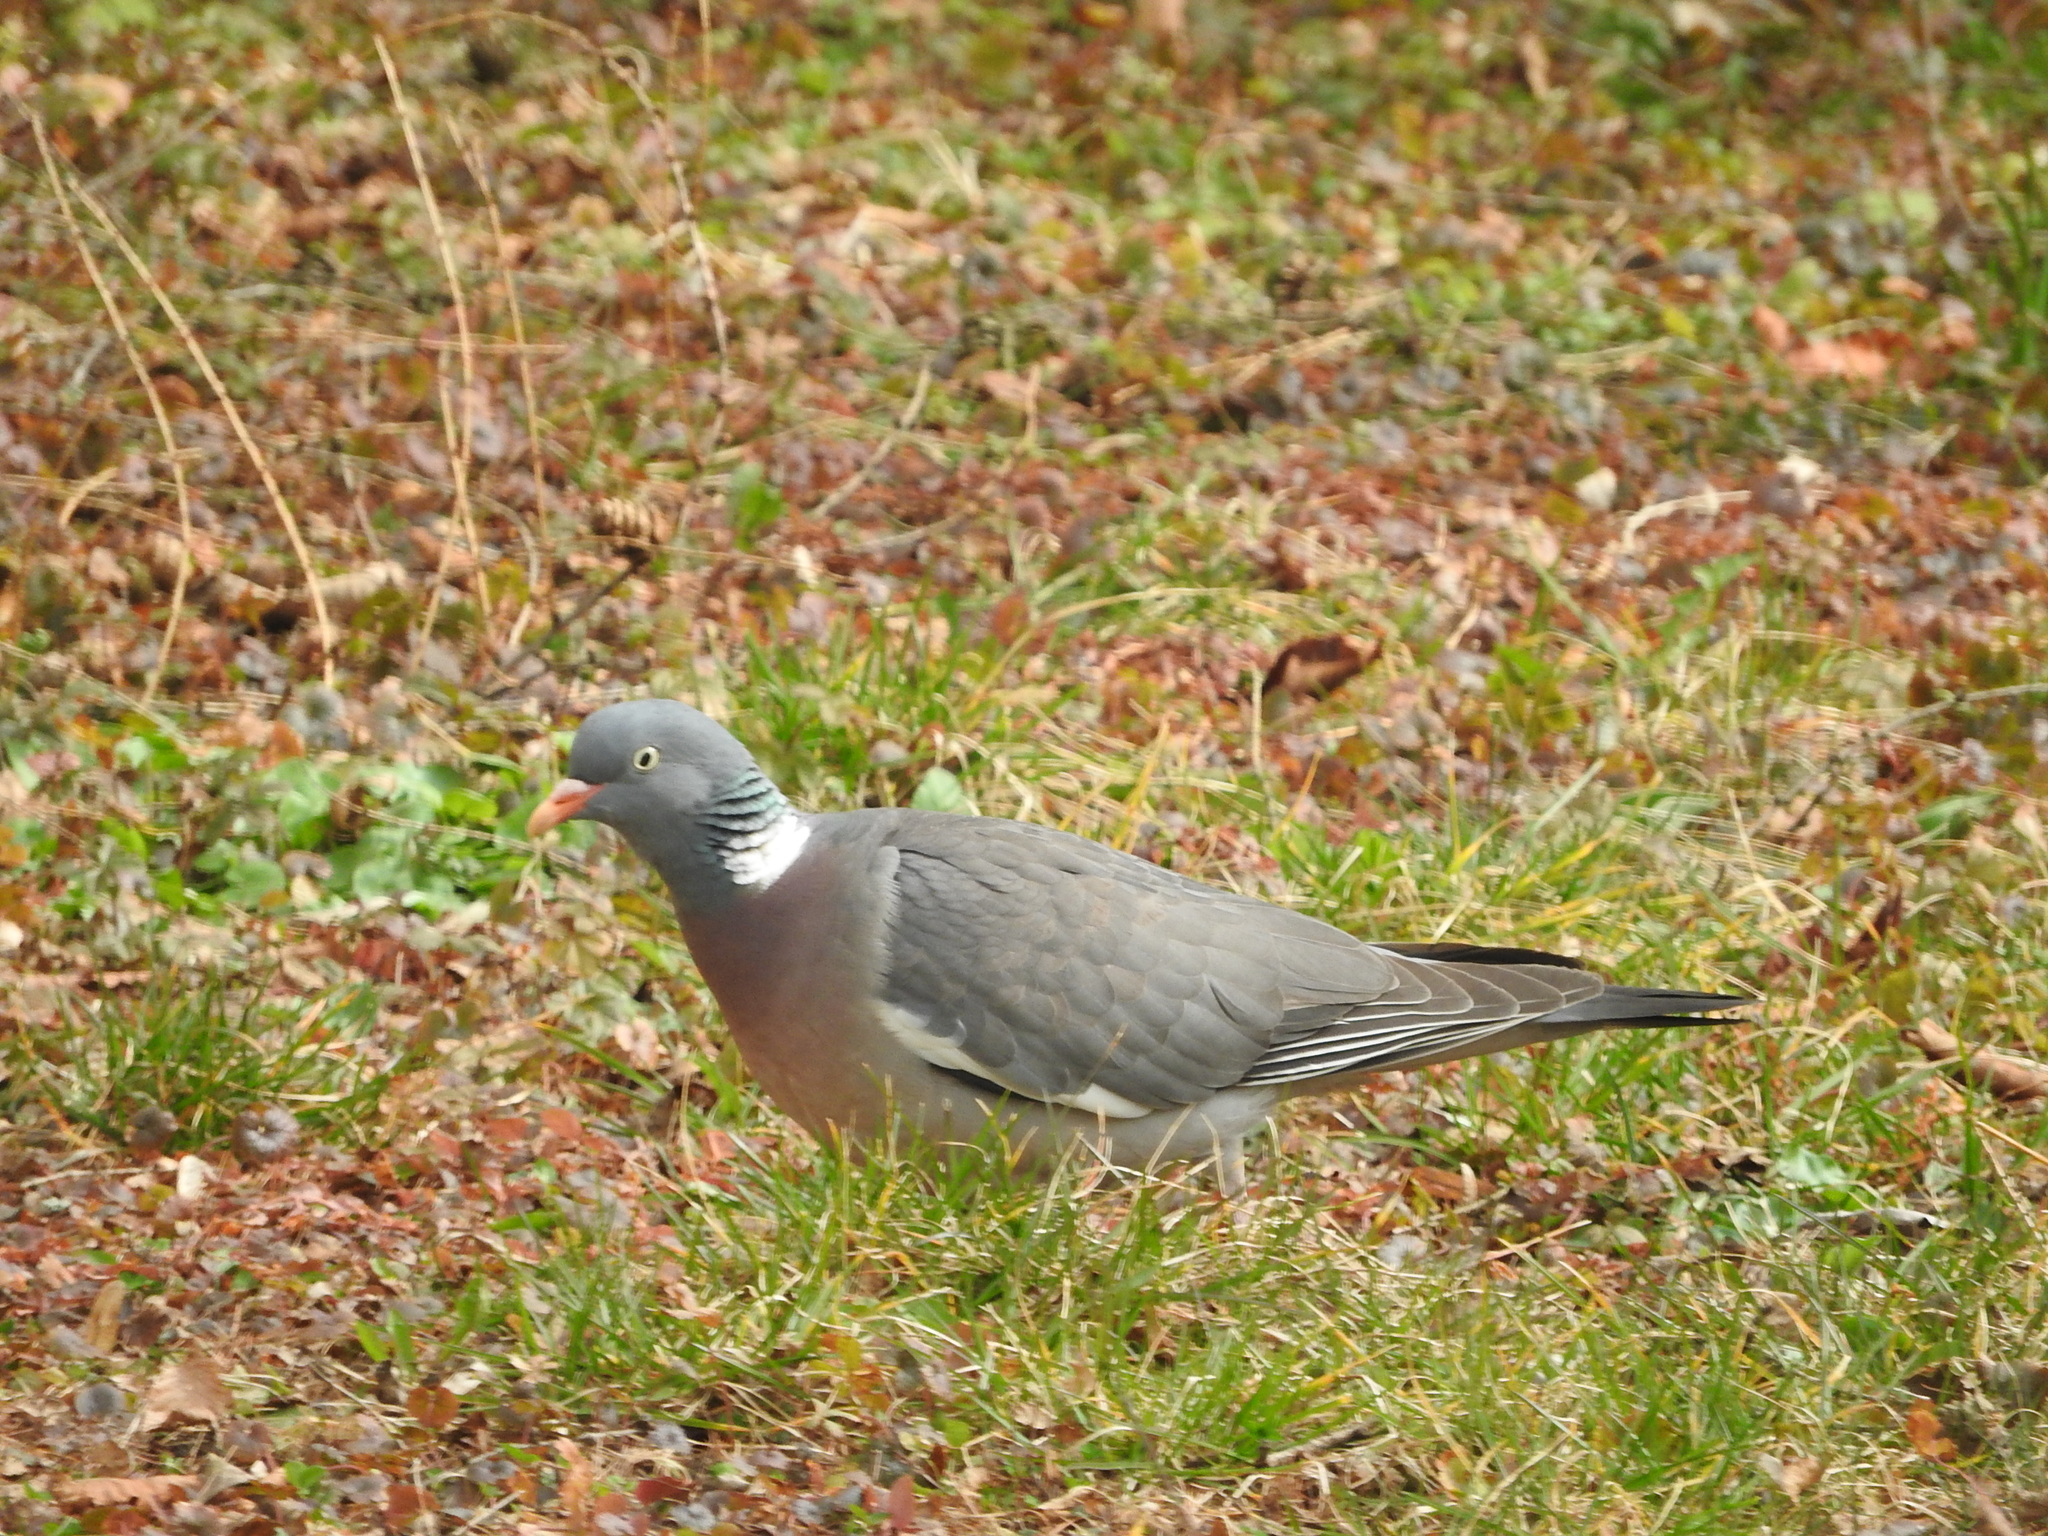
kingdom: Animalia
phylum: Chordata
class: Aves
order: Columbiformes
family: Columbidae
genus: Columba
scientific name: Columba palumbus
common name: Common wood pigeon
